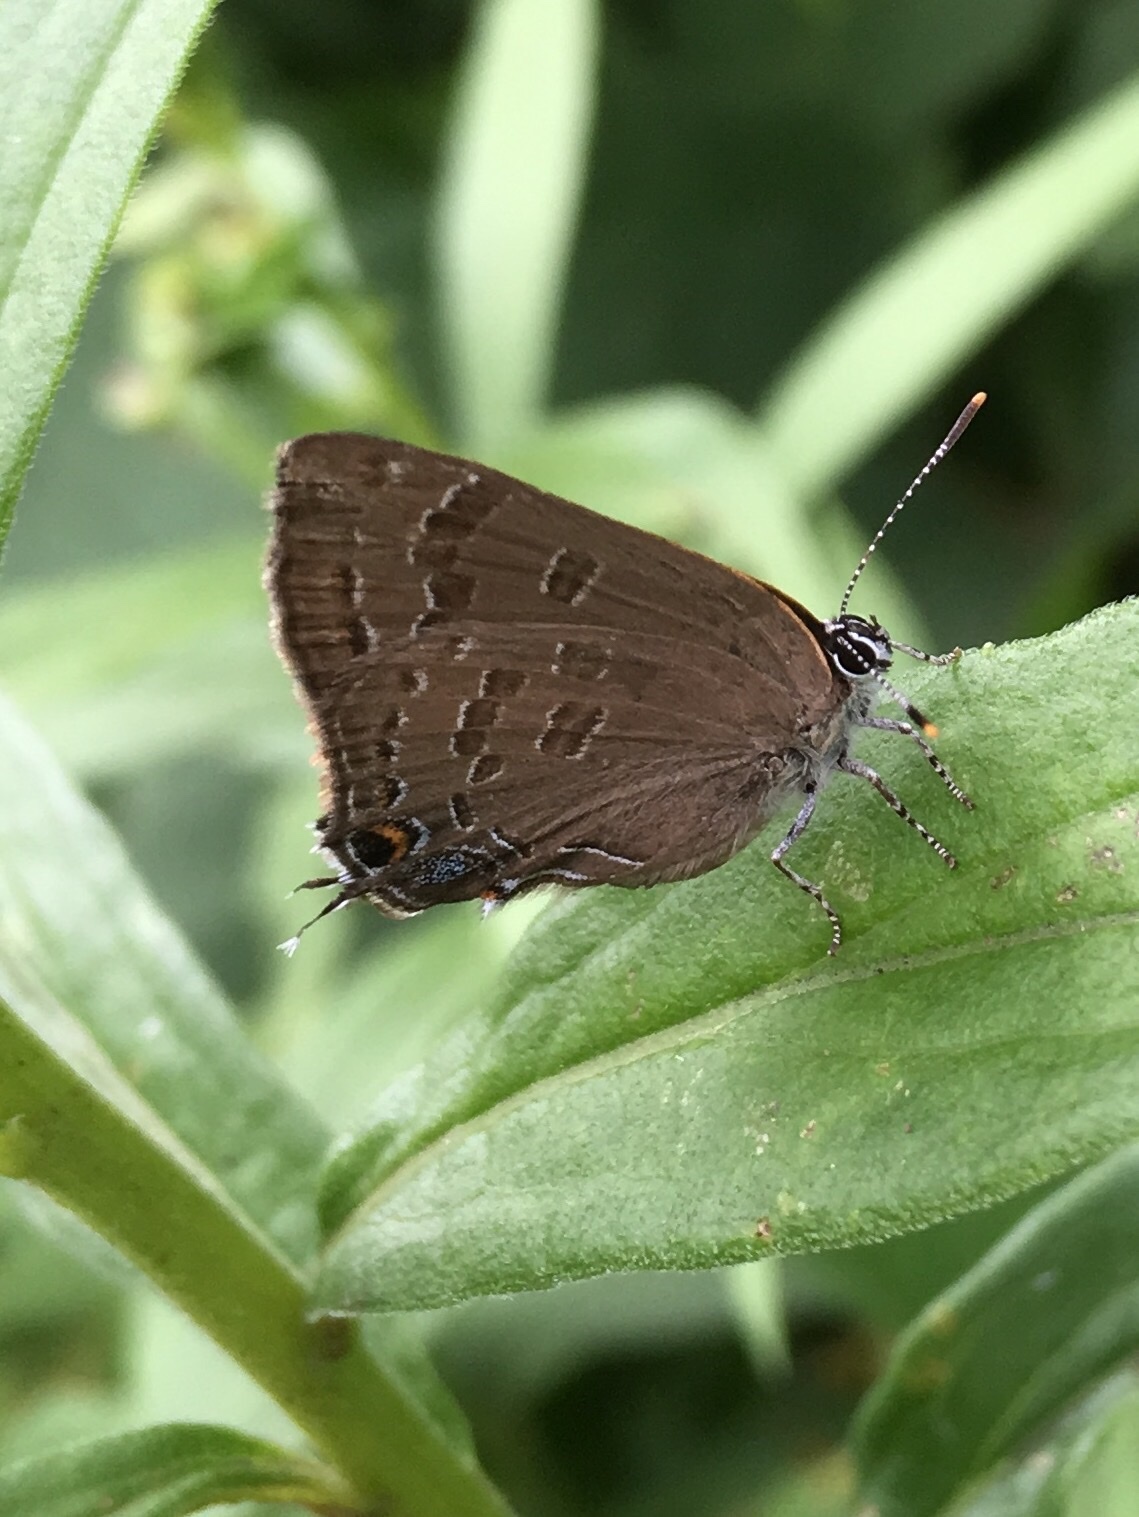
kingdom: Animalia
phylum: Arthropoda
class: Insecta
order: Lepidoptera
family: Lycaenidae
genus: Strymon
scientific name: Strymon caryaevorus
